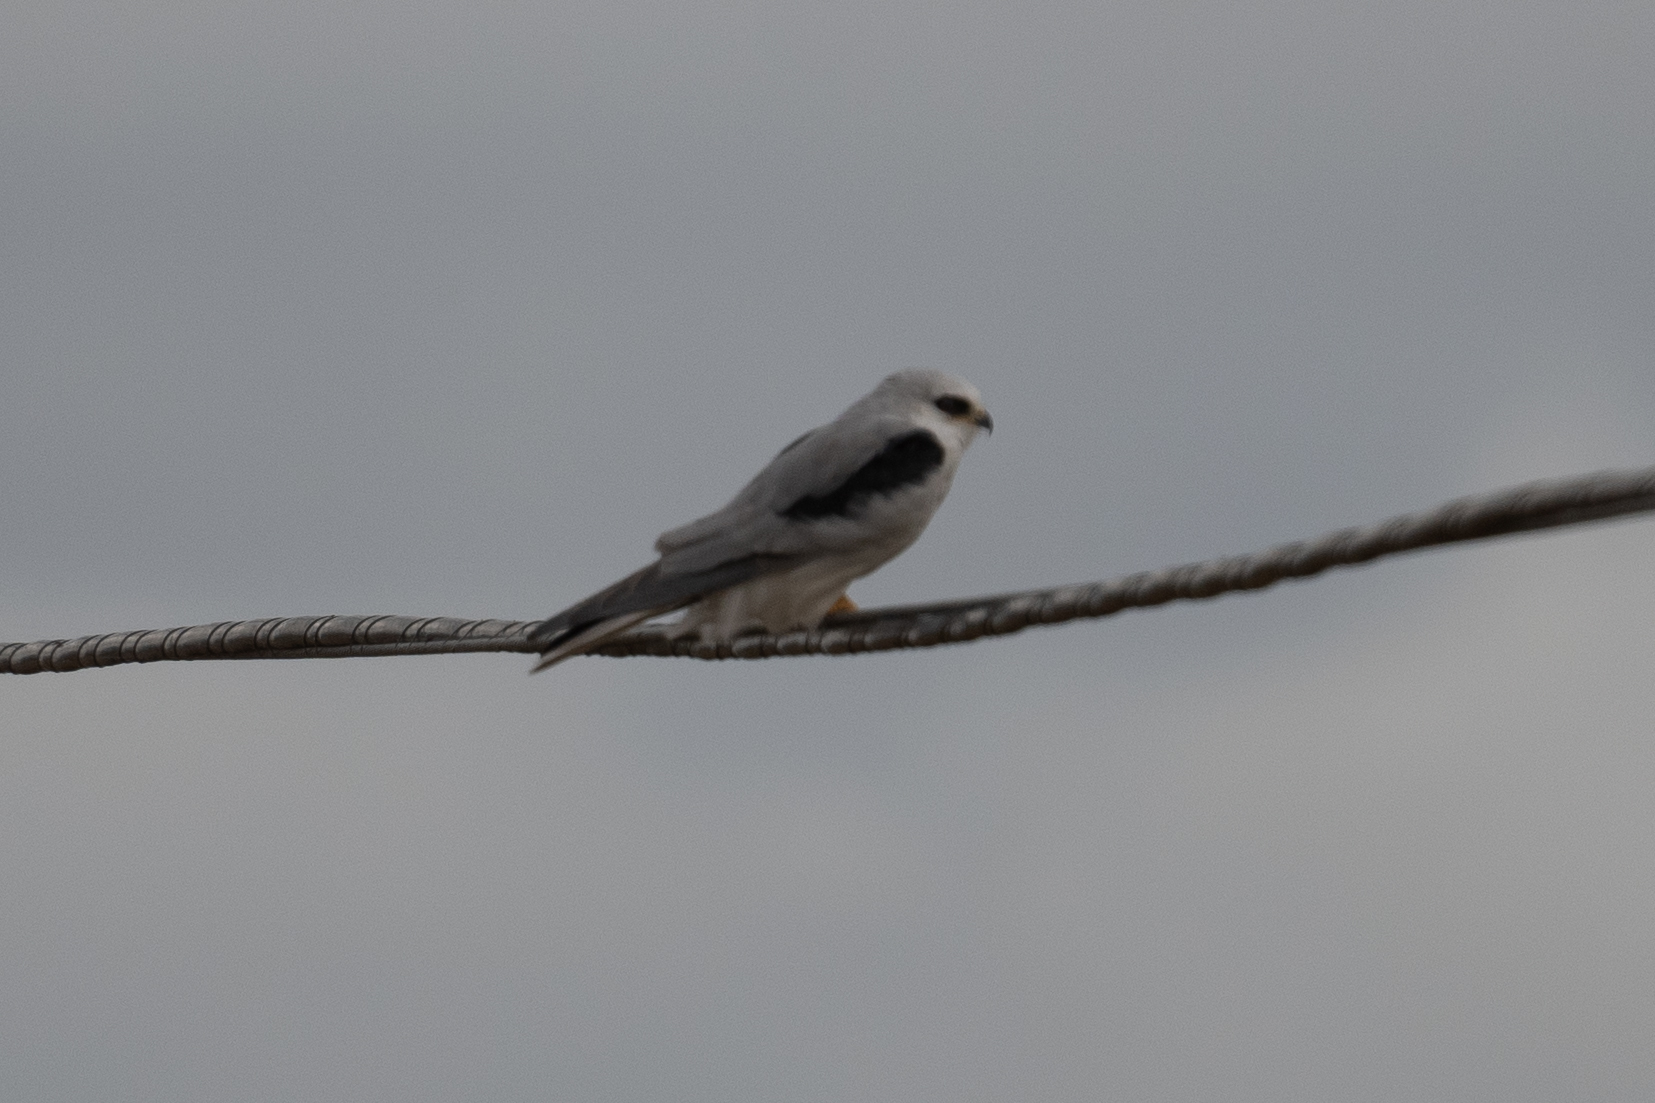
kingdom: Animalia
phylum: Chordata
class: Aves
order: Accipitriformes
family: Accipitridae
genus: Elanus
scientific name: Elanus leucurus
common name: White-tailed kite
